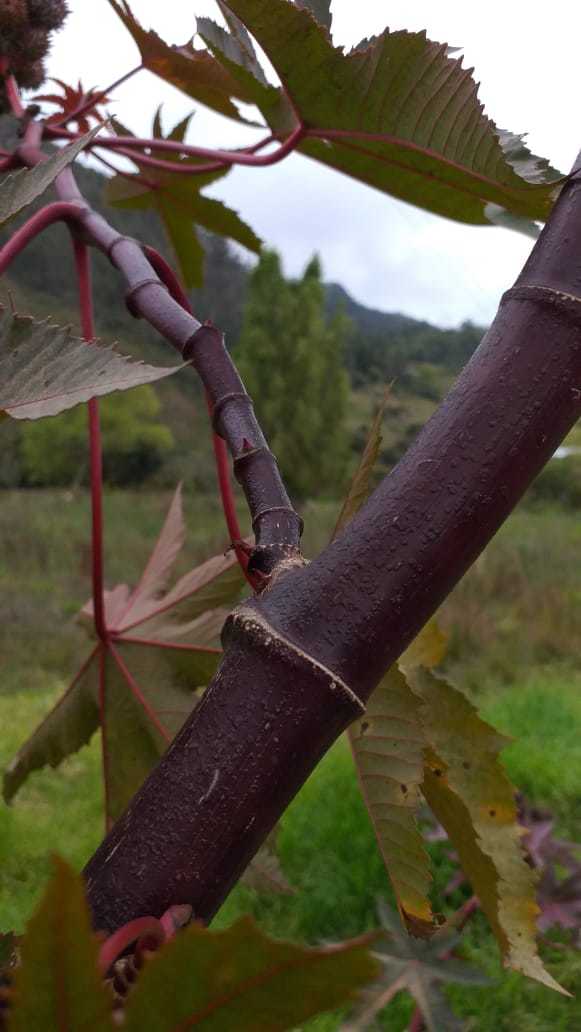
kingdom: Plantae
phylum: Tracheophyta
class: Magnoliopsida
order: Malpighiales
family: Euphorbiaceae
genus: Ricinus
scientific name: Ricinus communis
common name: Castor-oil-plant
